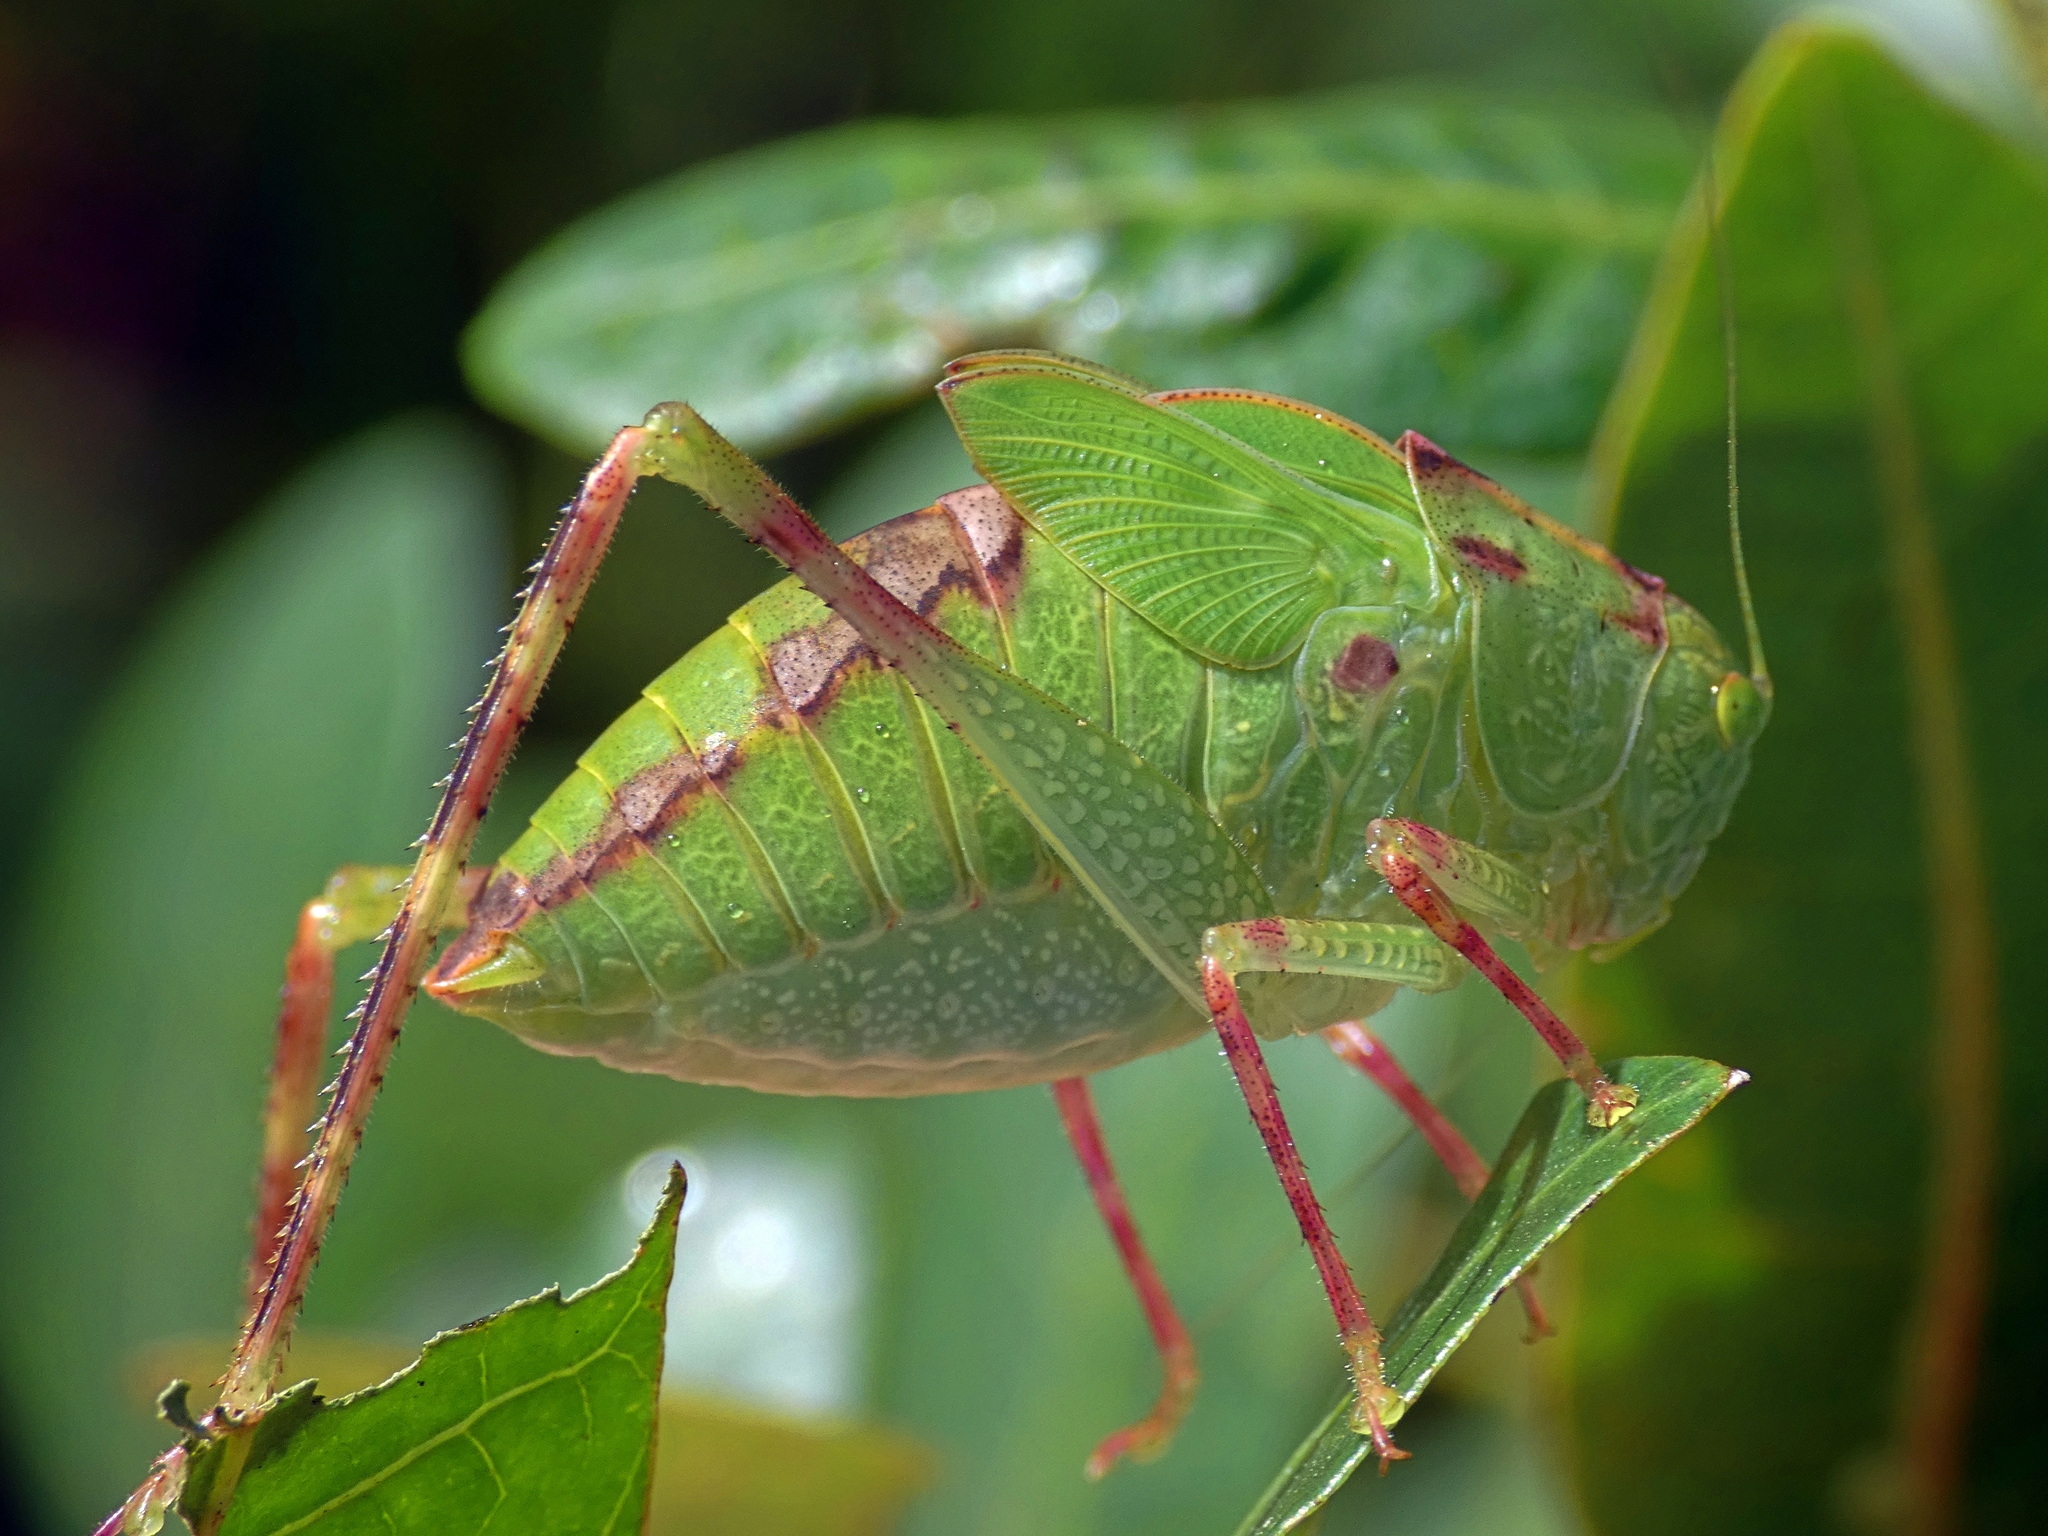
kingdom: Animalia
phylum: Arthropoda
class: Insecta
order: Orthoptera
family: Tettigoniidae
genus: Turpilia
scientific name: Turpilia rostrata
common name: Narrow-beaked katydid
